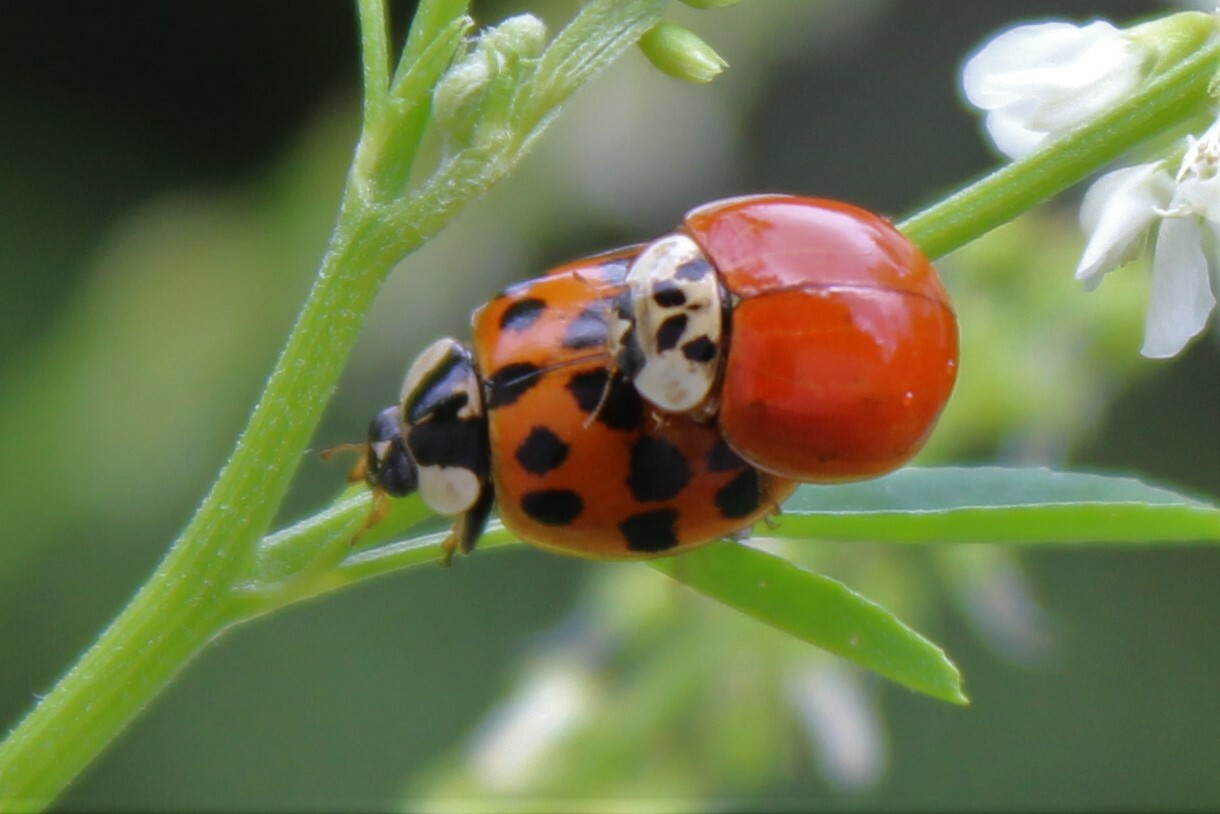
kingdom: Animalia
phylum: Arthropoda
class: Insecta
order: Coleoptera
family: Coccinellidae
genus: Harmonia
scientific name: Harmonia axyridis
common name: Harlequin ladybird
